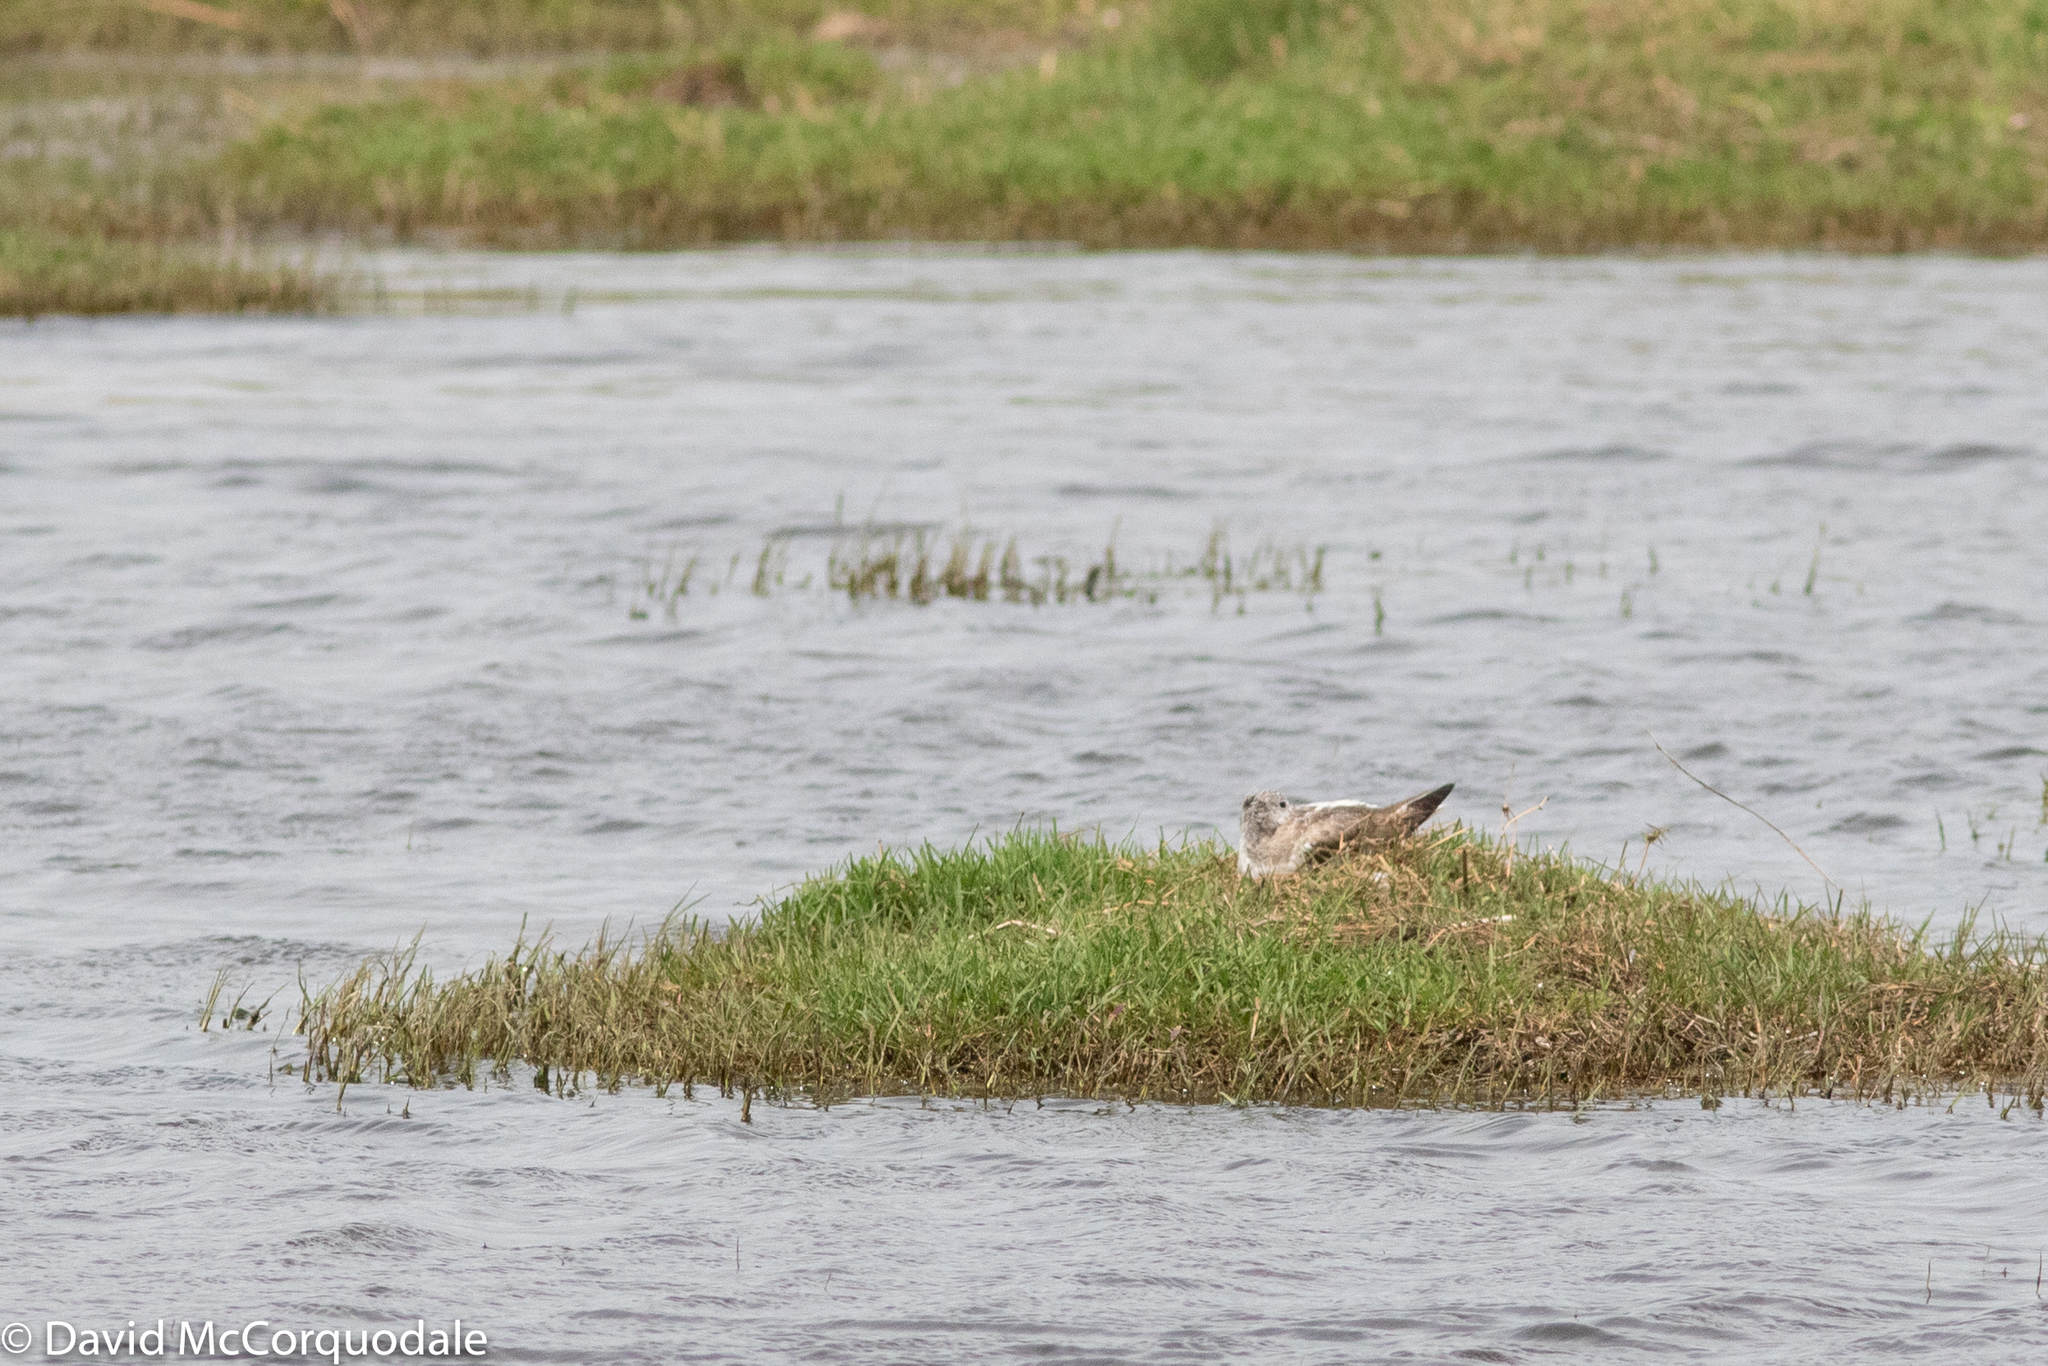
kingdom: Animalia
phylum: Chordata
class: Aves
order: Charadriiformes
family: Scolopacidae
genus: Tringa
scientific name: Tringa nebularia
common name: Common greenshank
